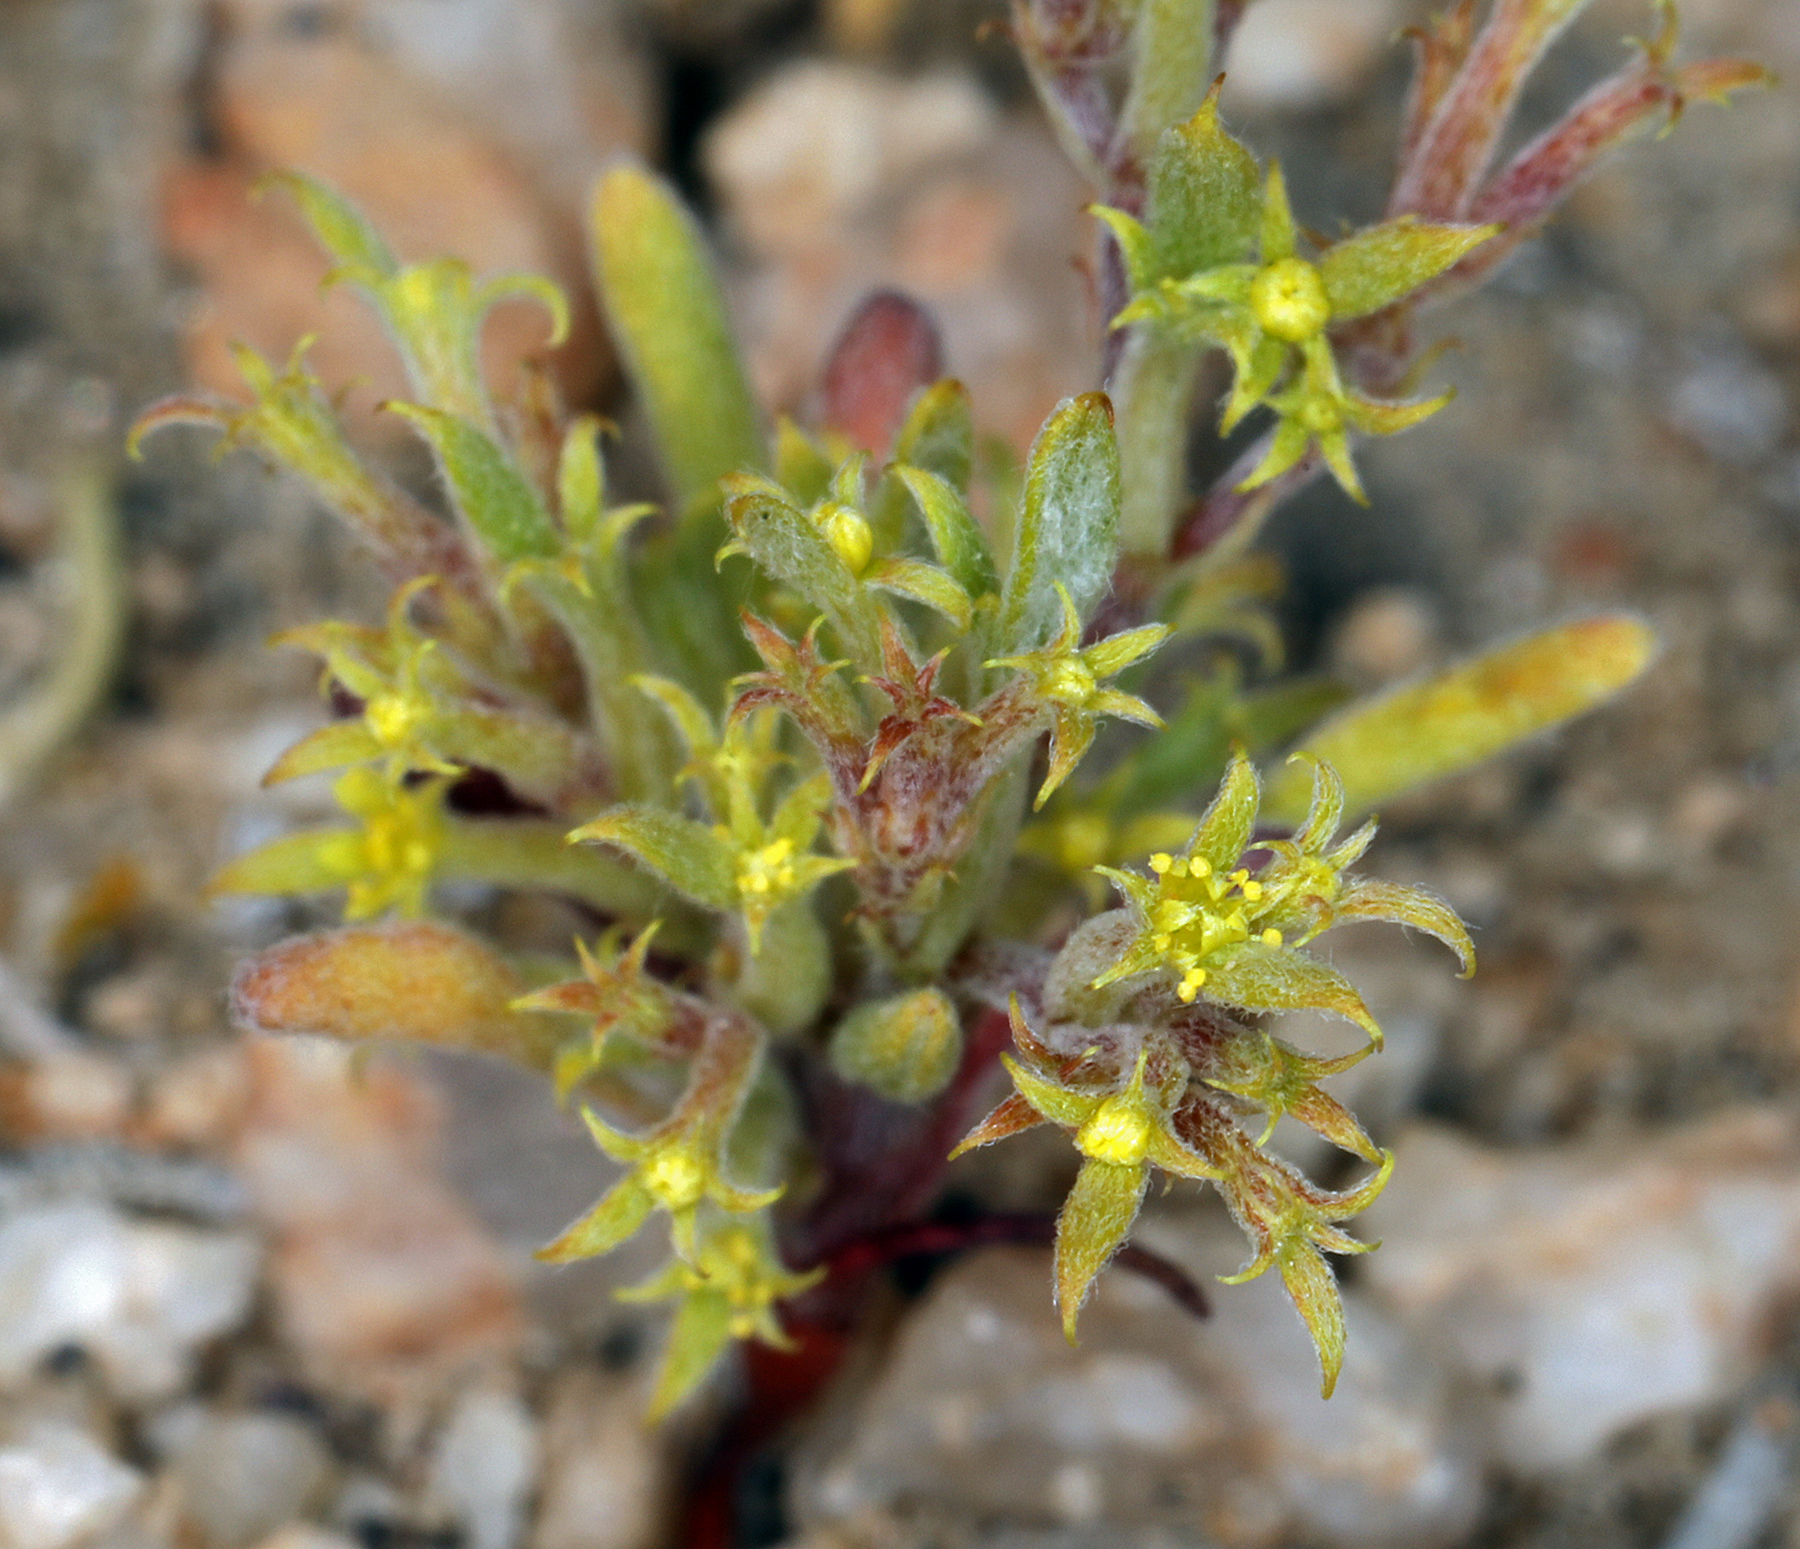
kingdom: Plantae
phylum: Tracheophyta
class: Magnoliopsida
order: Caryophyllales
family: Polygonaceae
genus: Chorizanthe
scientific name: Chorizanthe watsonii
